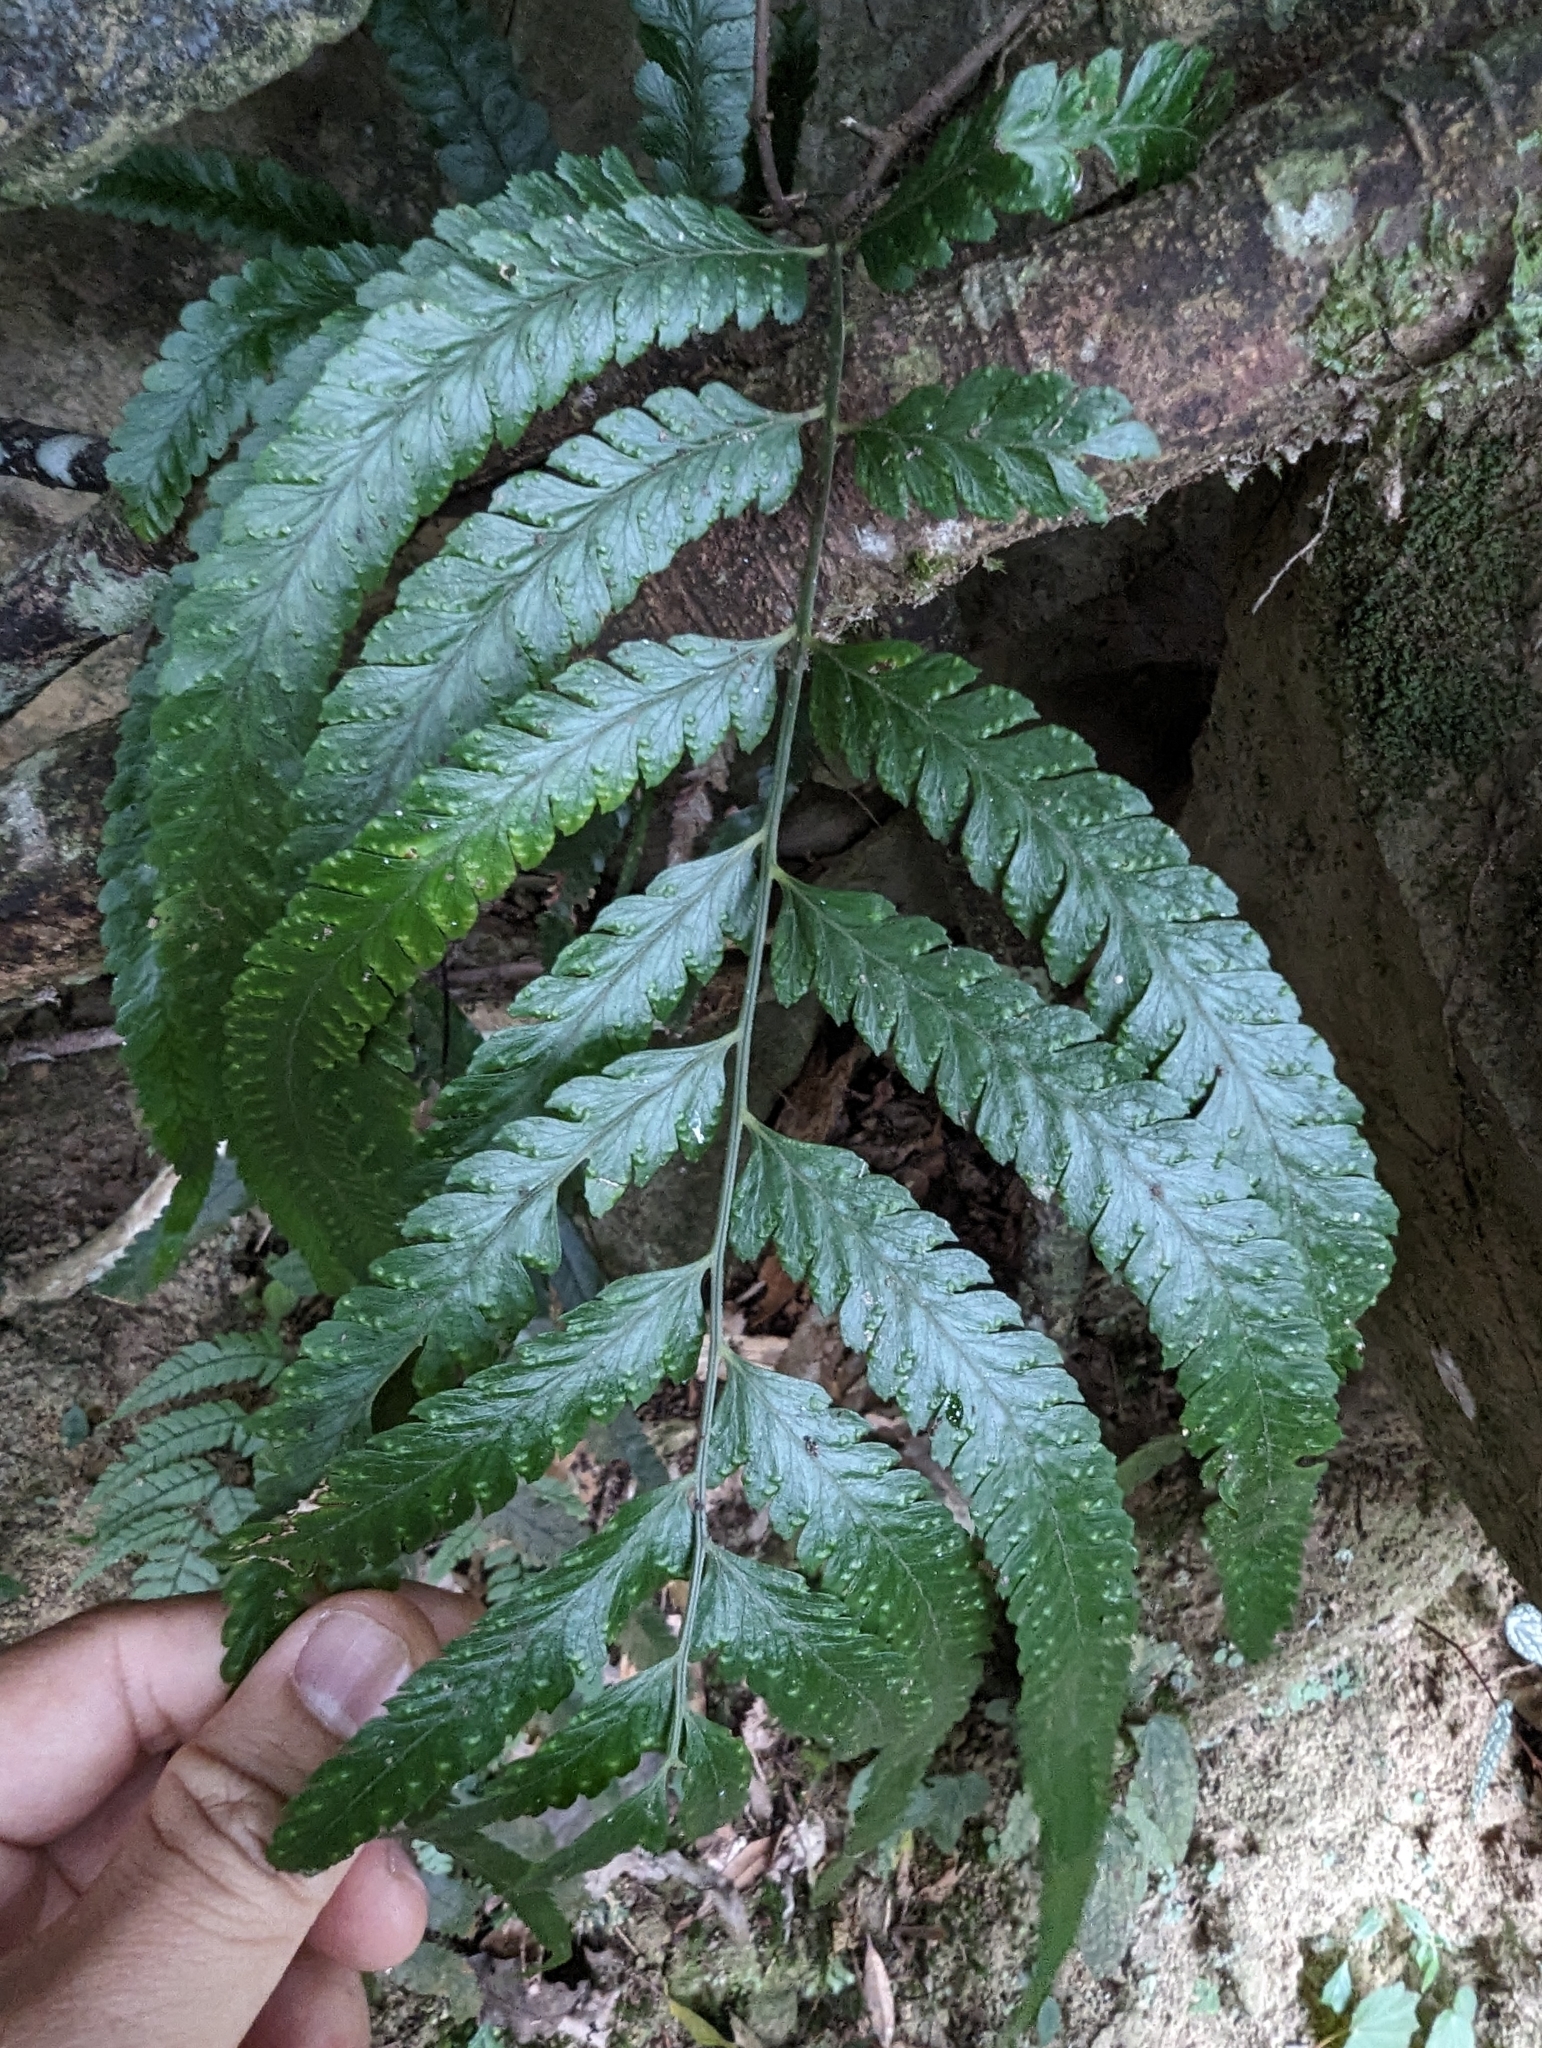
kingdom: Plantae
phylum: Tracheophyta
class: Polypodiopsida
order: Polypodiales
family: Dennstaedtiaceae
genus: Microlepia
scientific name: Microlepia calvescens
